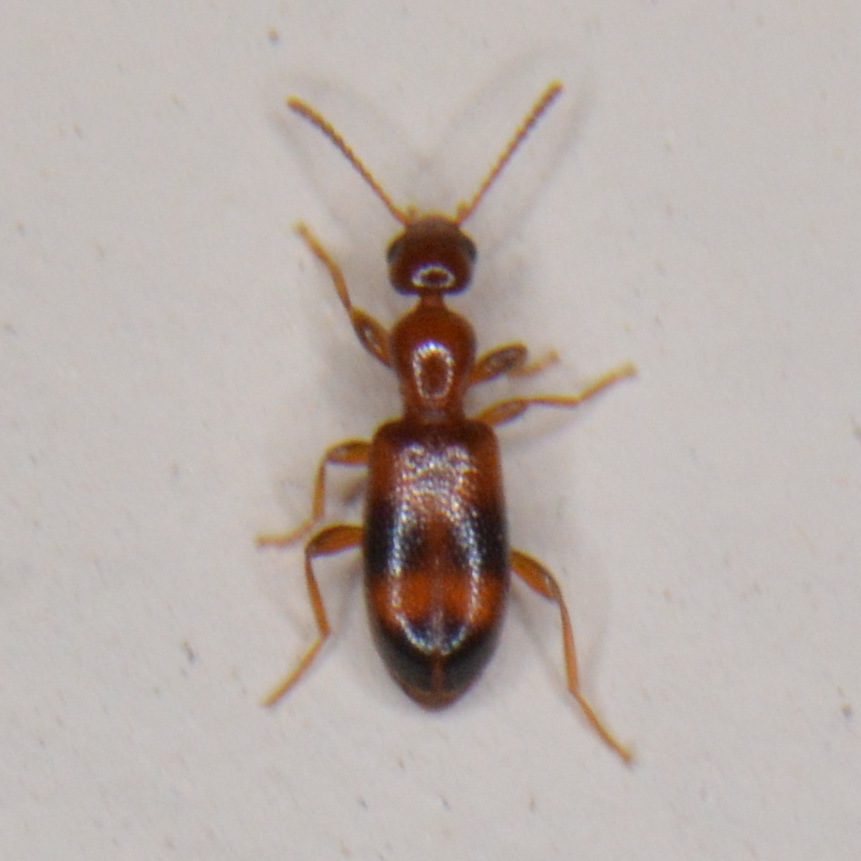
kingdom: Animalia
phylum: Arthropoda
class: Insecta
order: Coleoptera
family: Anthicidae
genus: Vacusus
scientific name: Vacusus vicinus
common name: Antlike flower beetle
